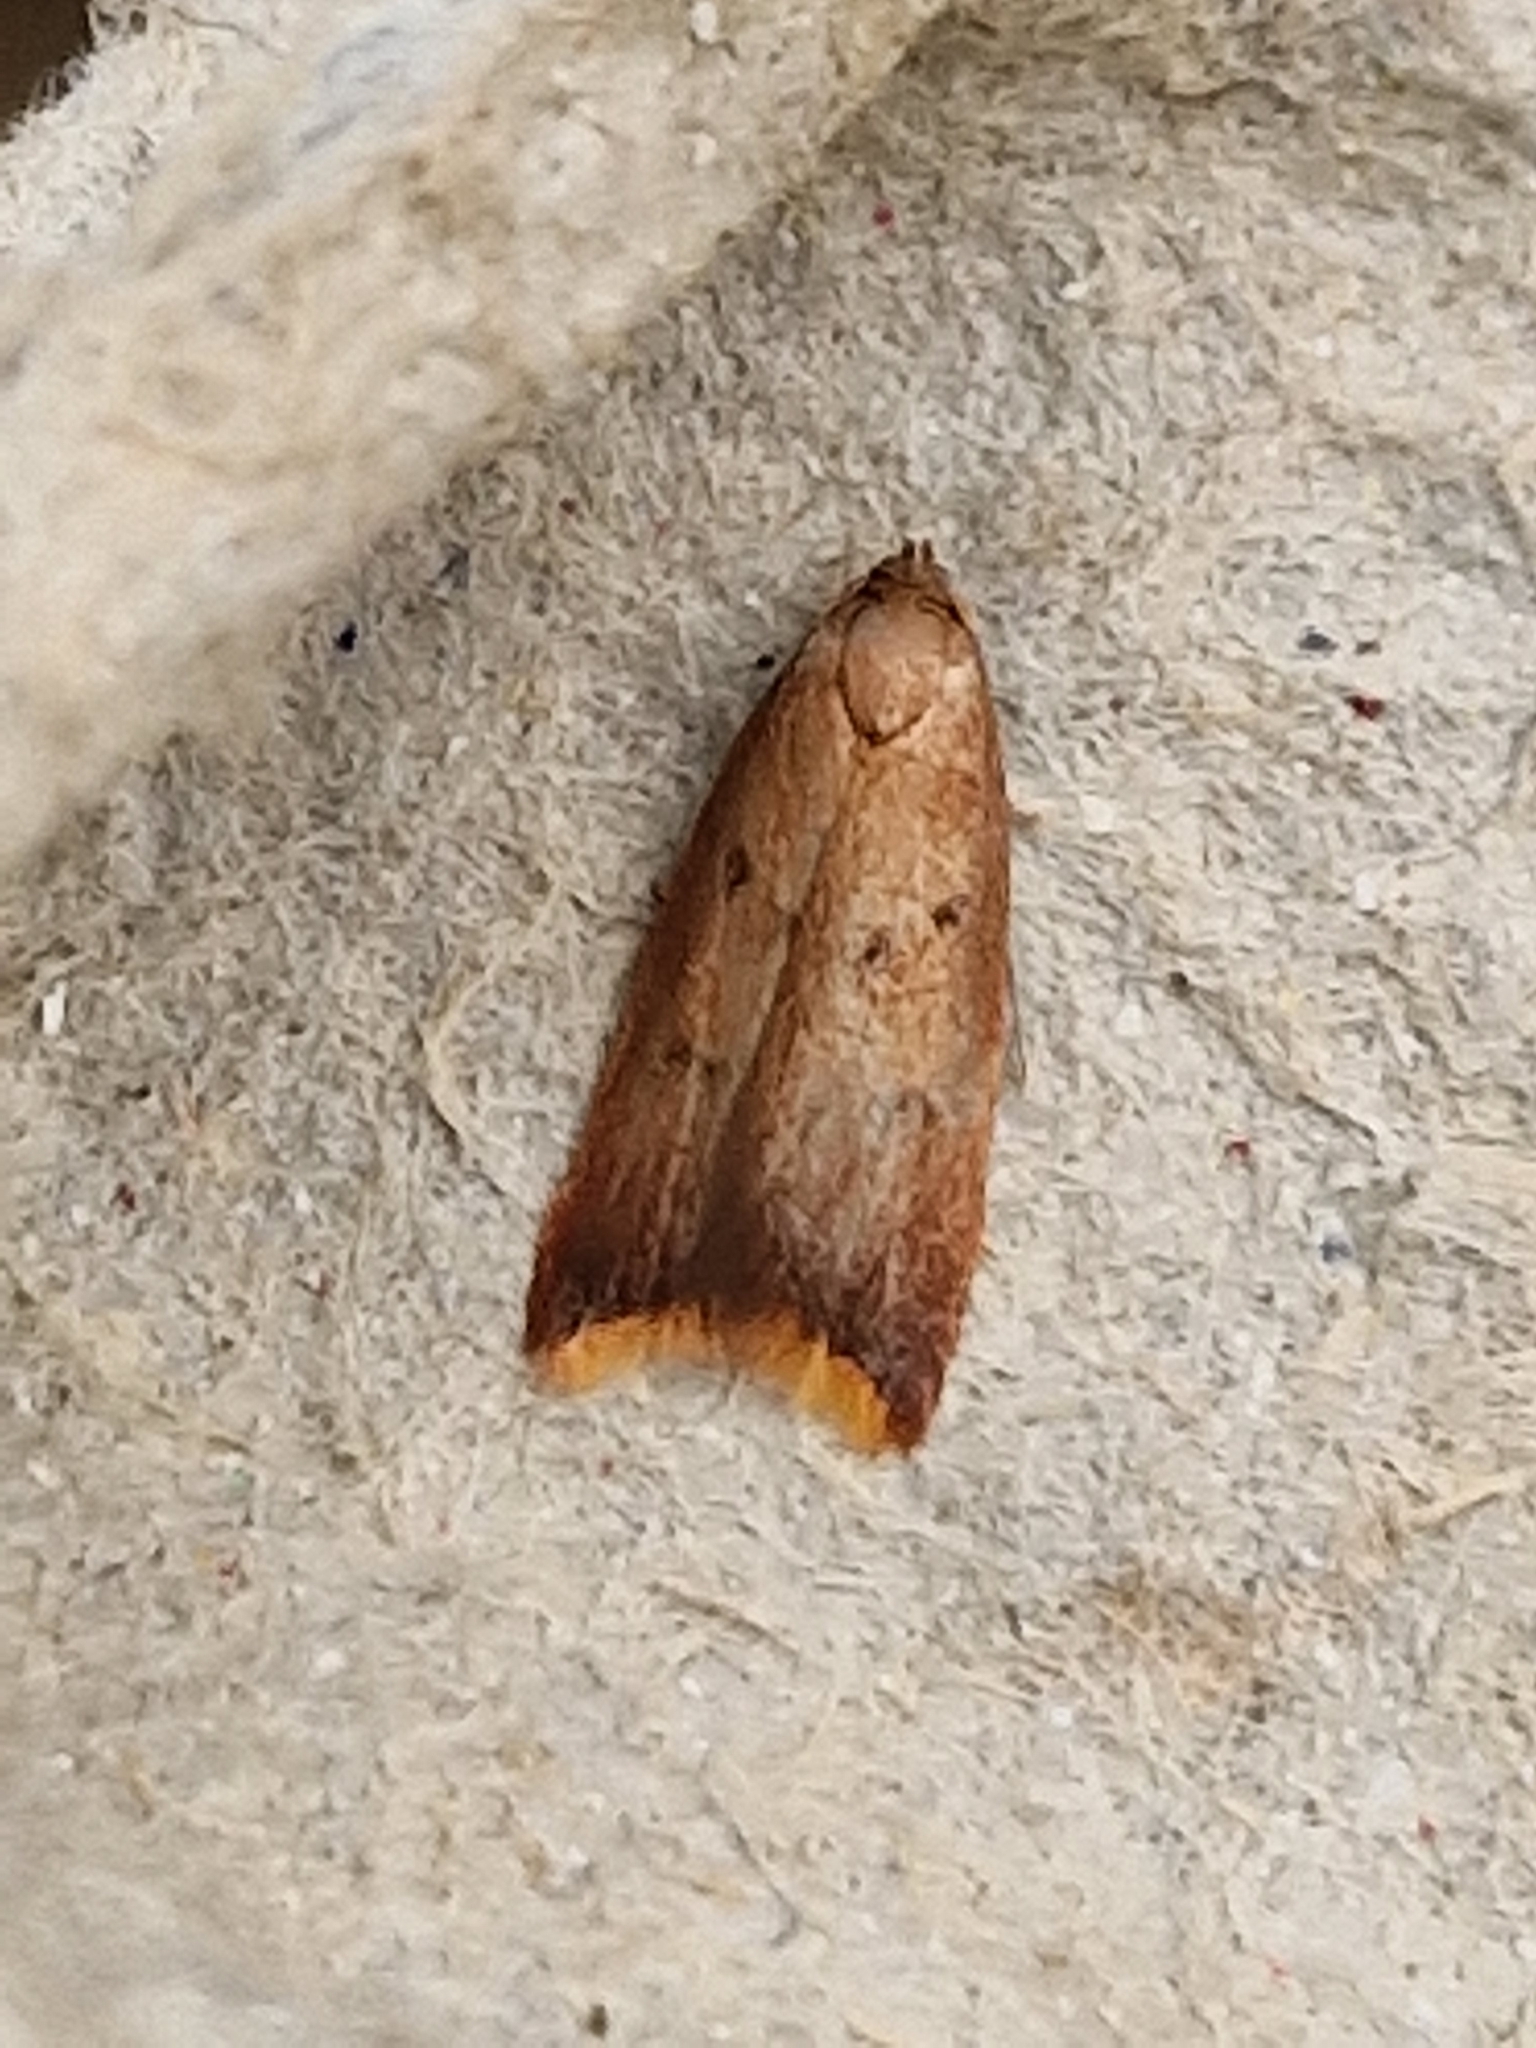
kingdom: Animalia
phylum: Arthropoda
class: Insecta
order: Lepidoptera
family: Oecophoridae
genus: Tachystola
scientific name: Tachystola acroxantha
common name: Ruddy streak
